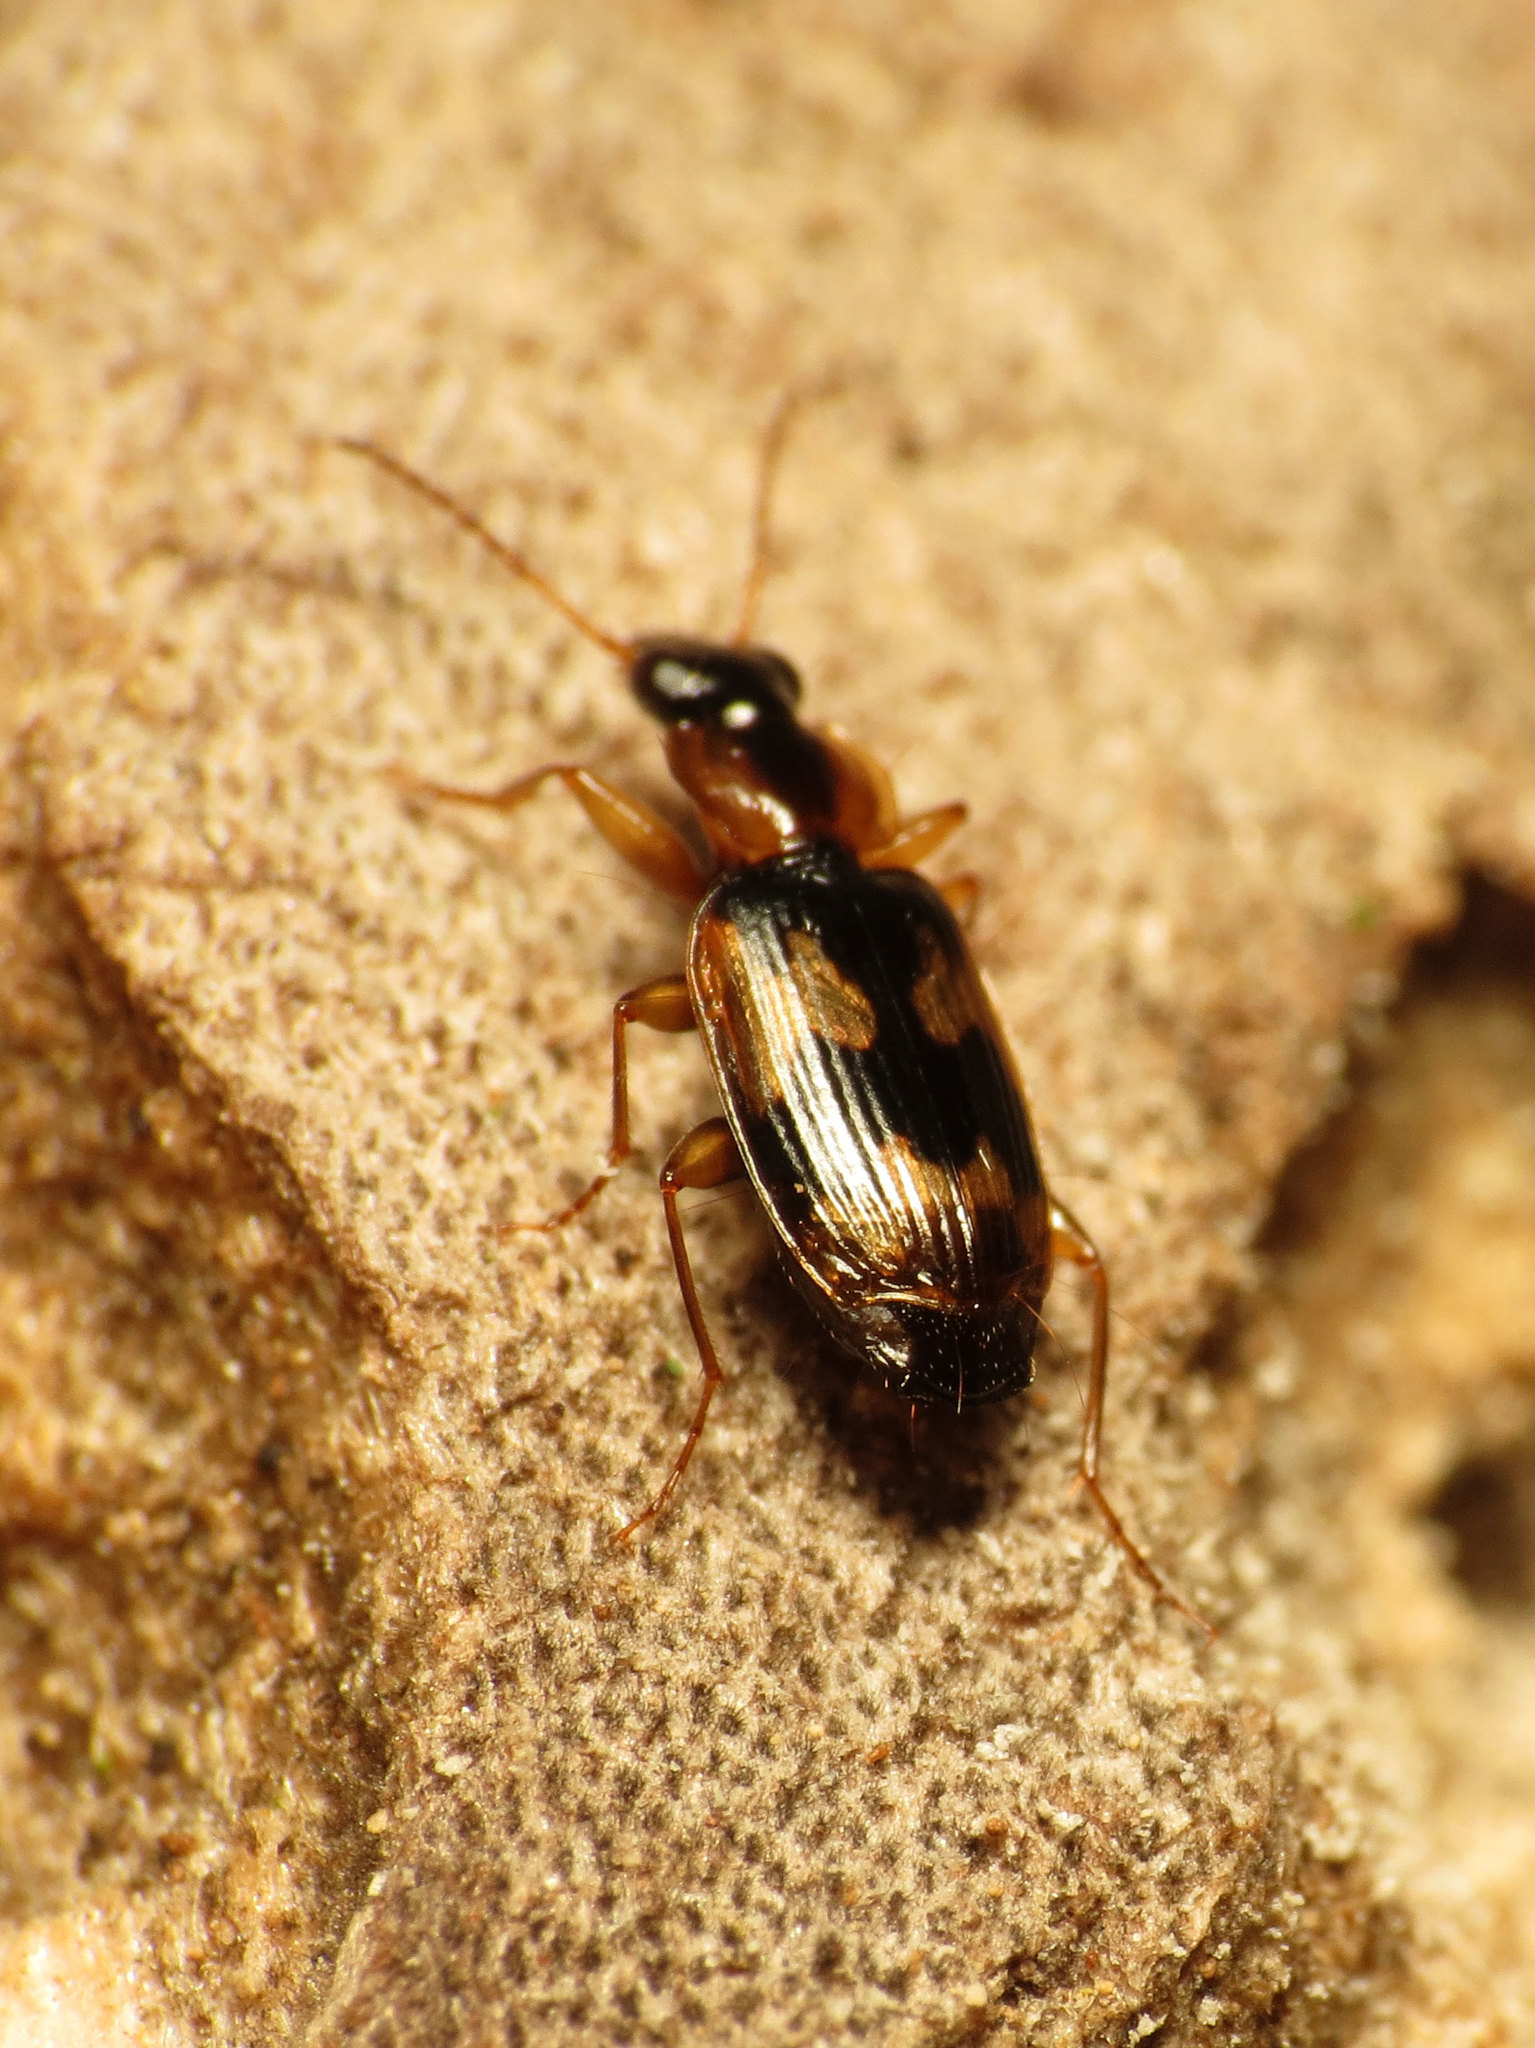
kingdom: Animalia
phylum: Arthropoda
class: Insecta
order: Coleoptera
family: Carabidae
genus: Phloeoxena
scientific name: Phloeoxena signata
